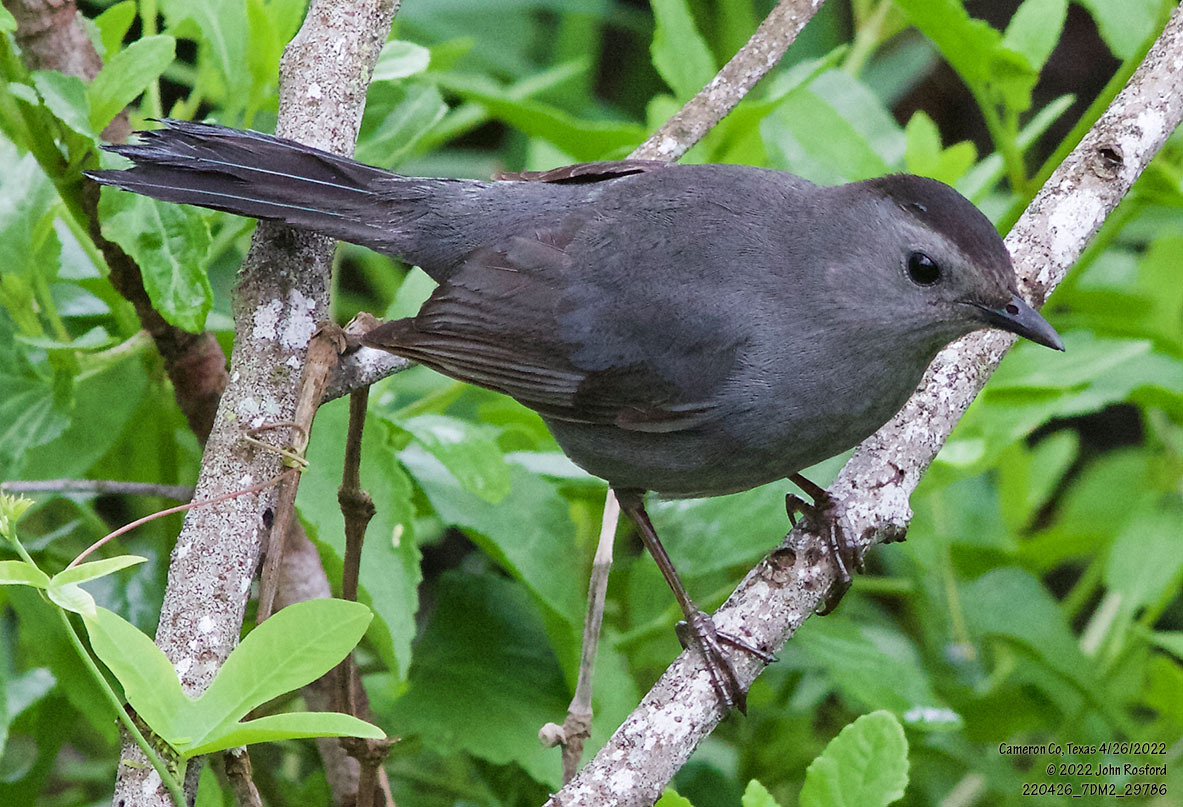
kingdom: Animalia
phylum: Chordata
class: Aves
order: Passeriformes
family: Mimidae
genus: Dumetella
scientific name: Dumetella carolinensis
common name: Gray catbird
